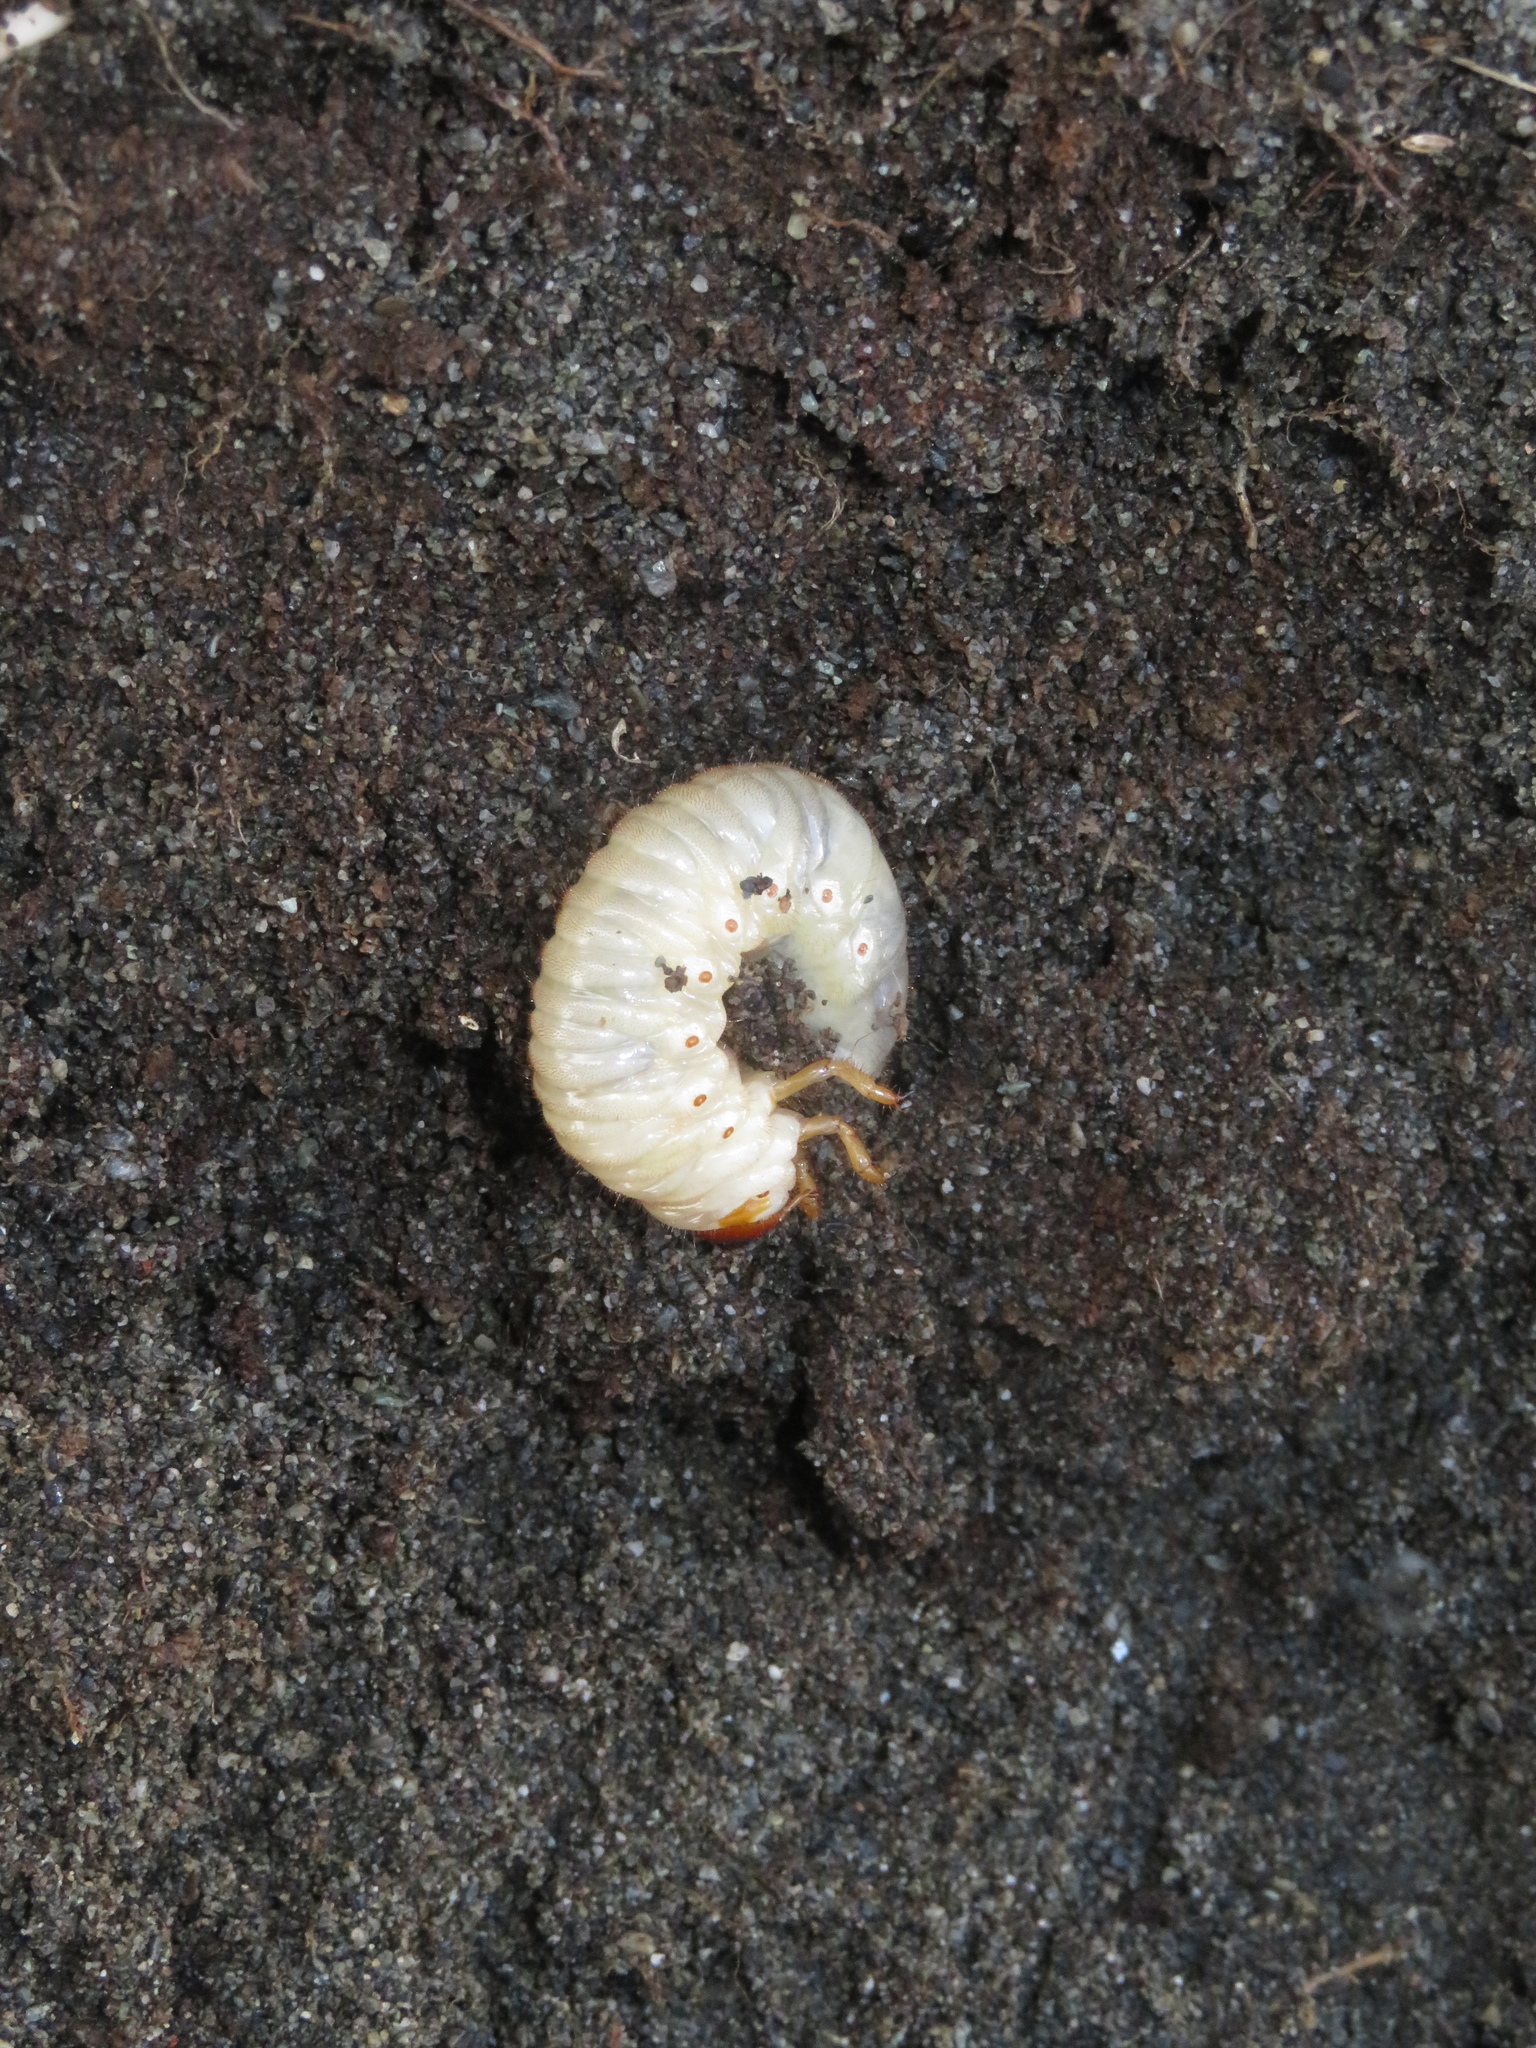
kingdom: Animalia
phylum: Arthropoda
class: Insecta
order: Coleoptera
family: Scarabaeidae
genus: Pericoptus
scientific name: Pericoptus truncatus
